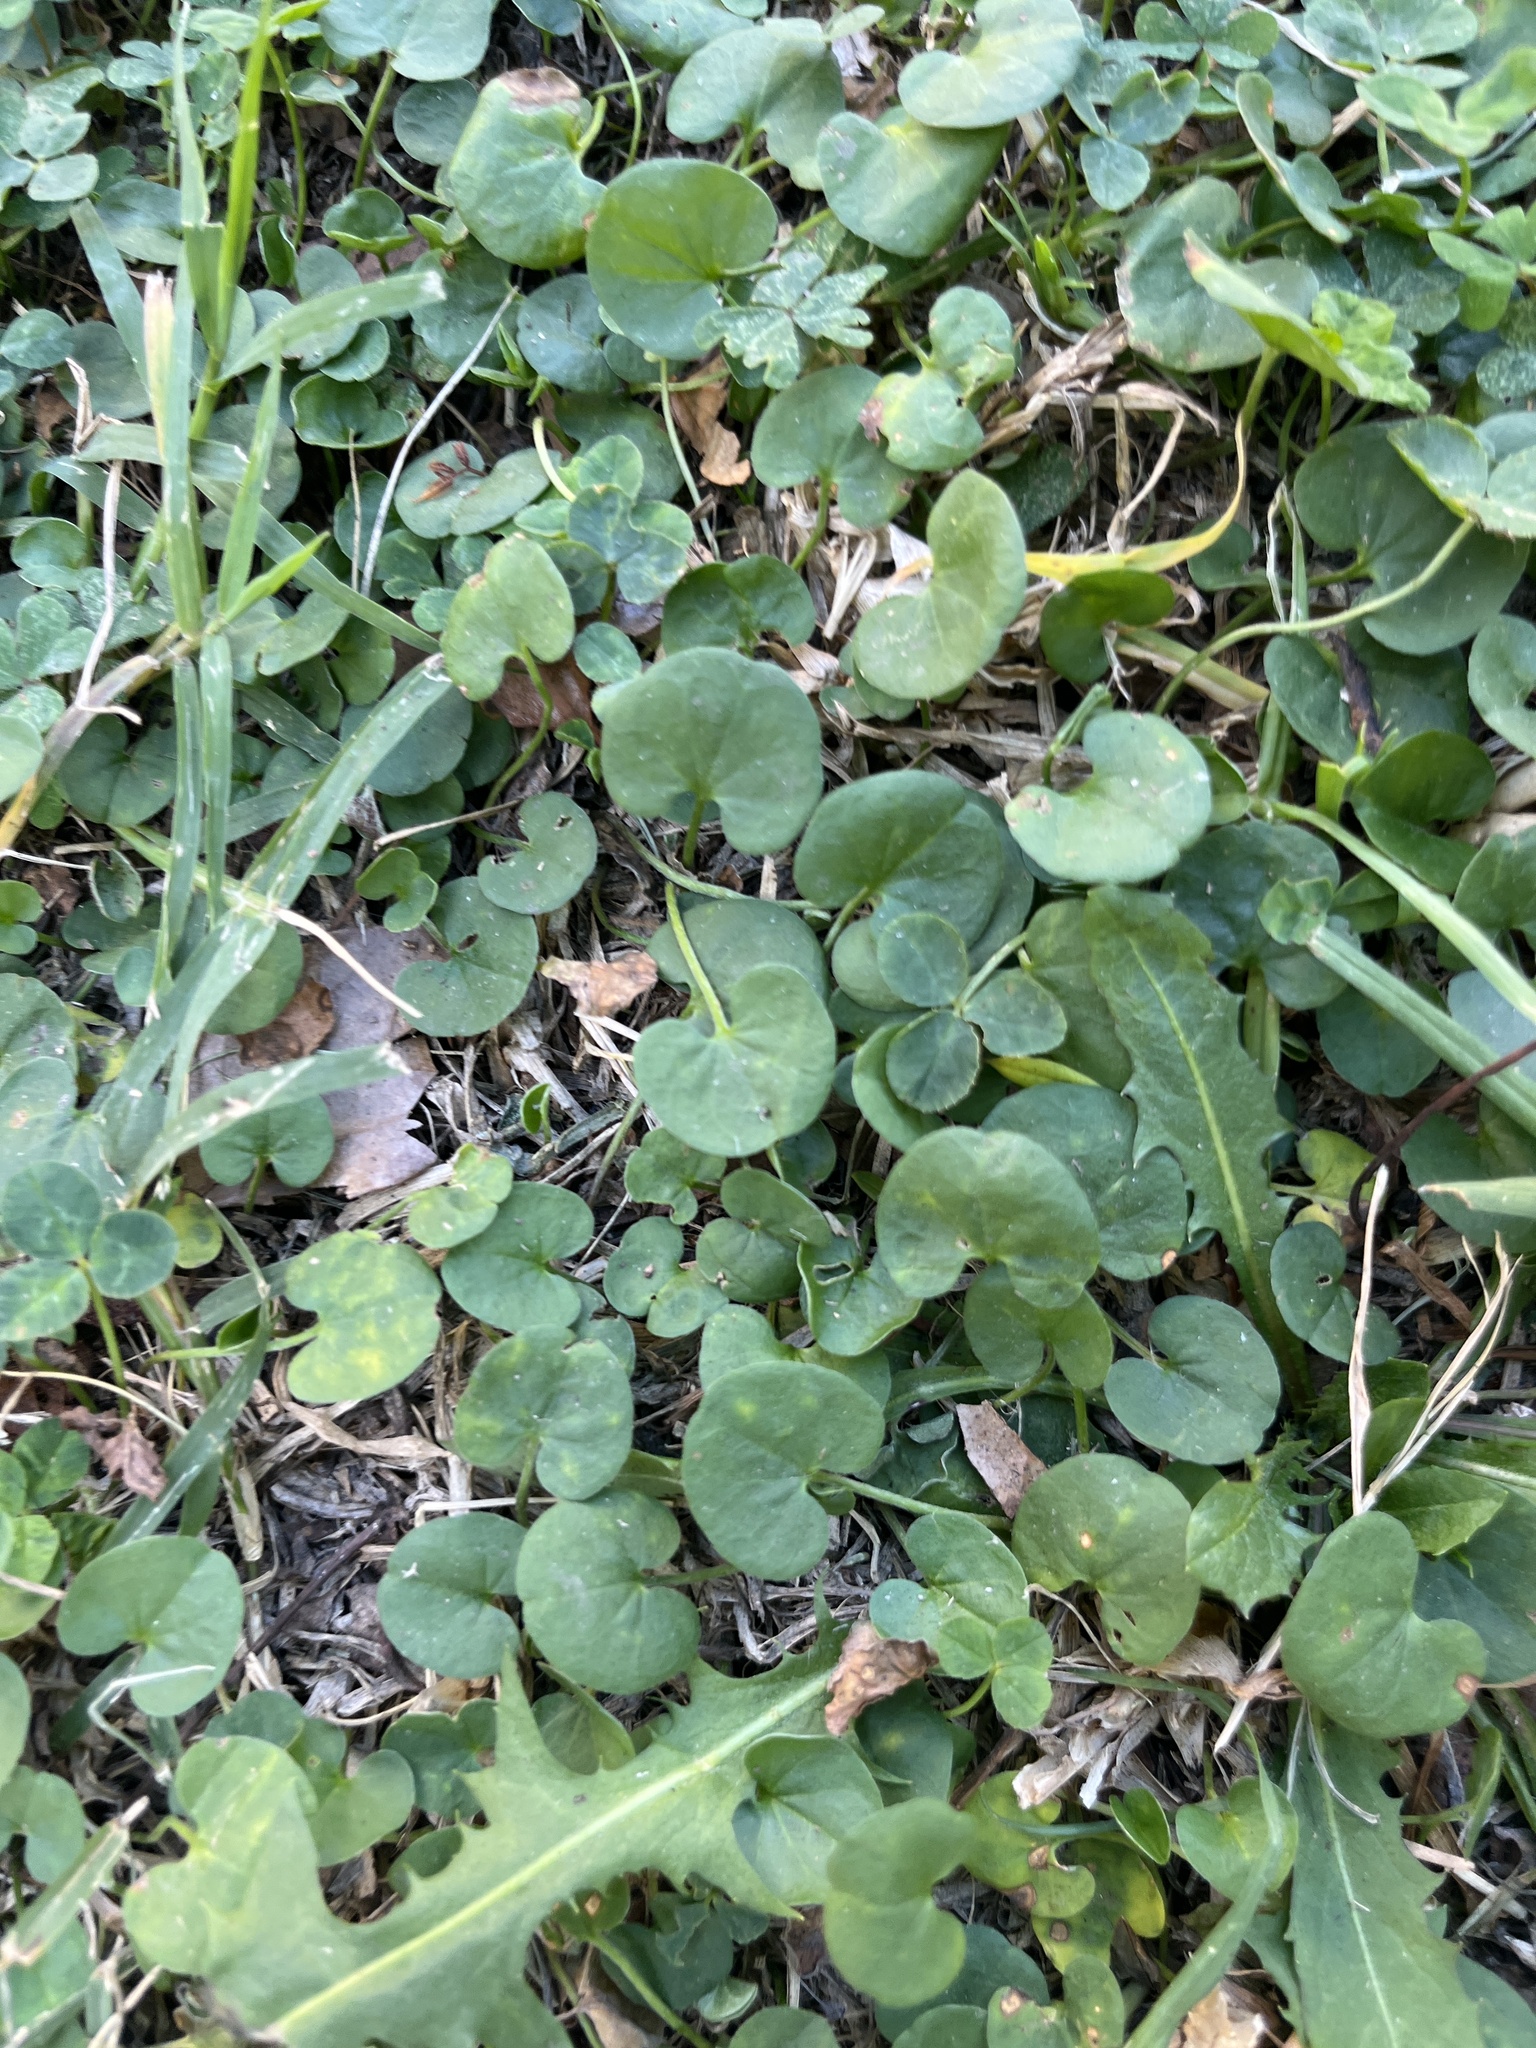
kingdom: Plantae
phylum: Tracheophyta
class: Magnoliopsida
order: Solanales
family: Convolvulaceae
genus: Dichondra
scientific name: Dichondra micrantha
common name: Kidneyweed
